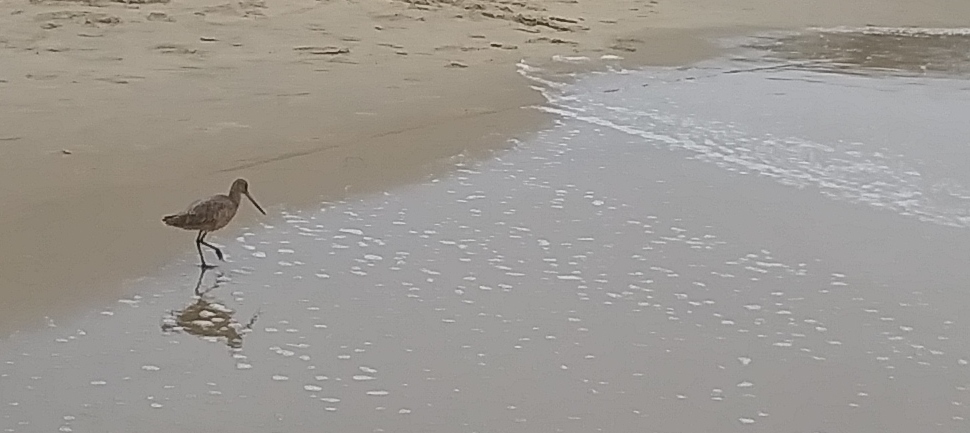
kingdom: Animalia
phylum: Chordata
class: Aves
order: Charadriiformes
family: Scolopacidae
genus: Limosa
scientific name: Limosa fedoa
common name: Marbled godwit
